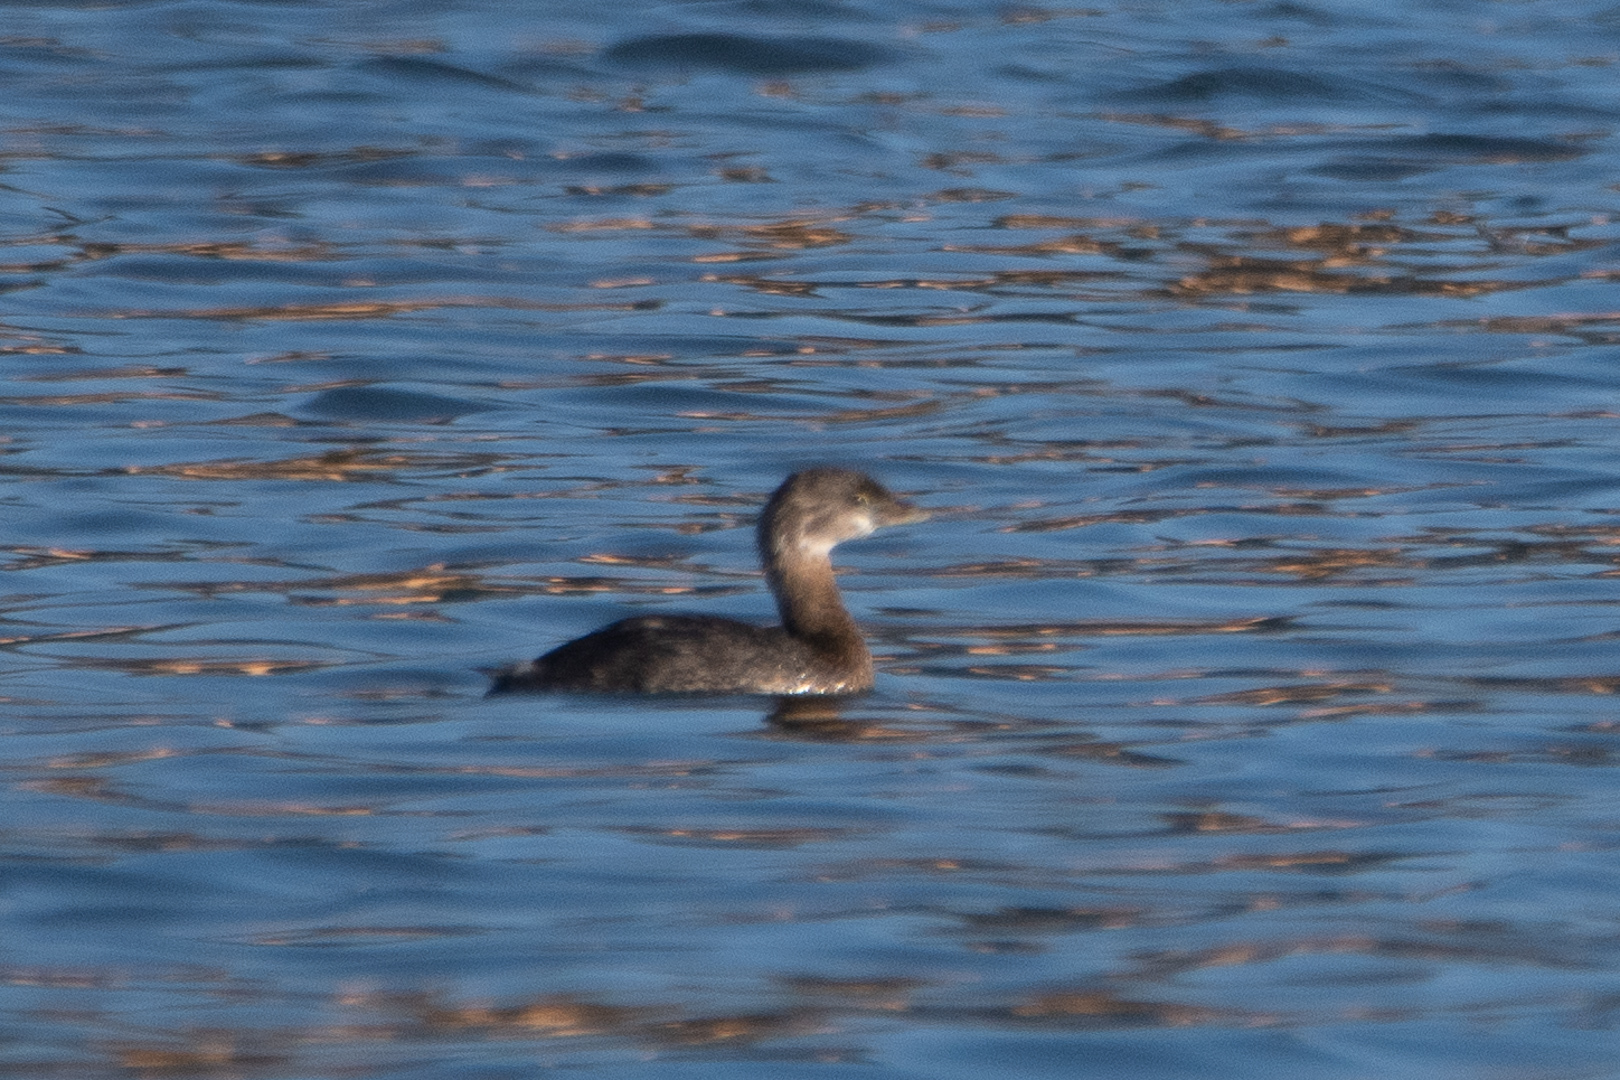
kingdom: Animalia
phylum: Chordata
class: Aves
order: Podicipediformes
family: Podicipedidae
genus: Podilymbus
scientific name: Podilymbus podiceps
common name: Pied-billed grebe
